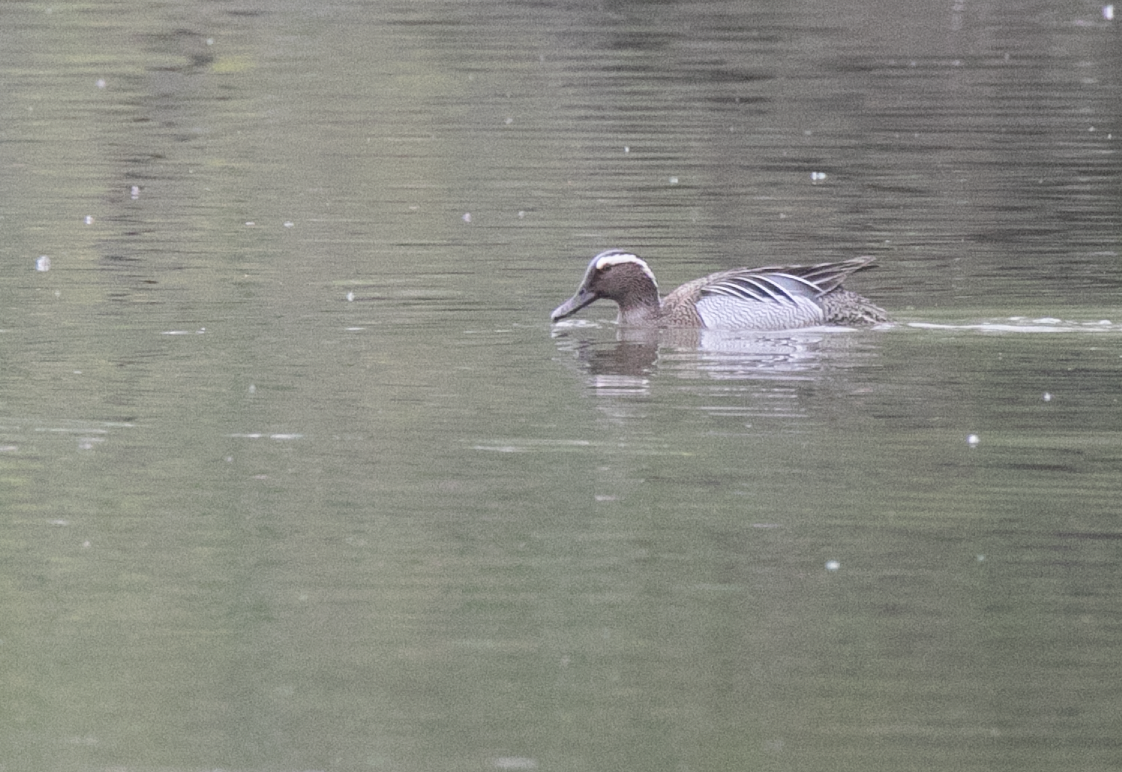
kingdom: Animalia
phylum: Chordata
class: Aves
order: Anseriformes
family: Anatidae
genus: Spatula
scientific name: Spatula querquedula
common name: Garganey
